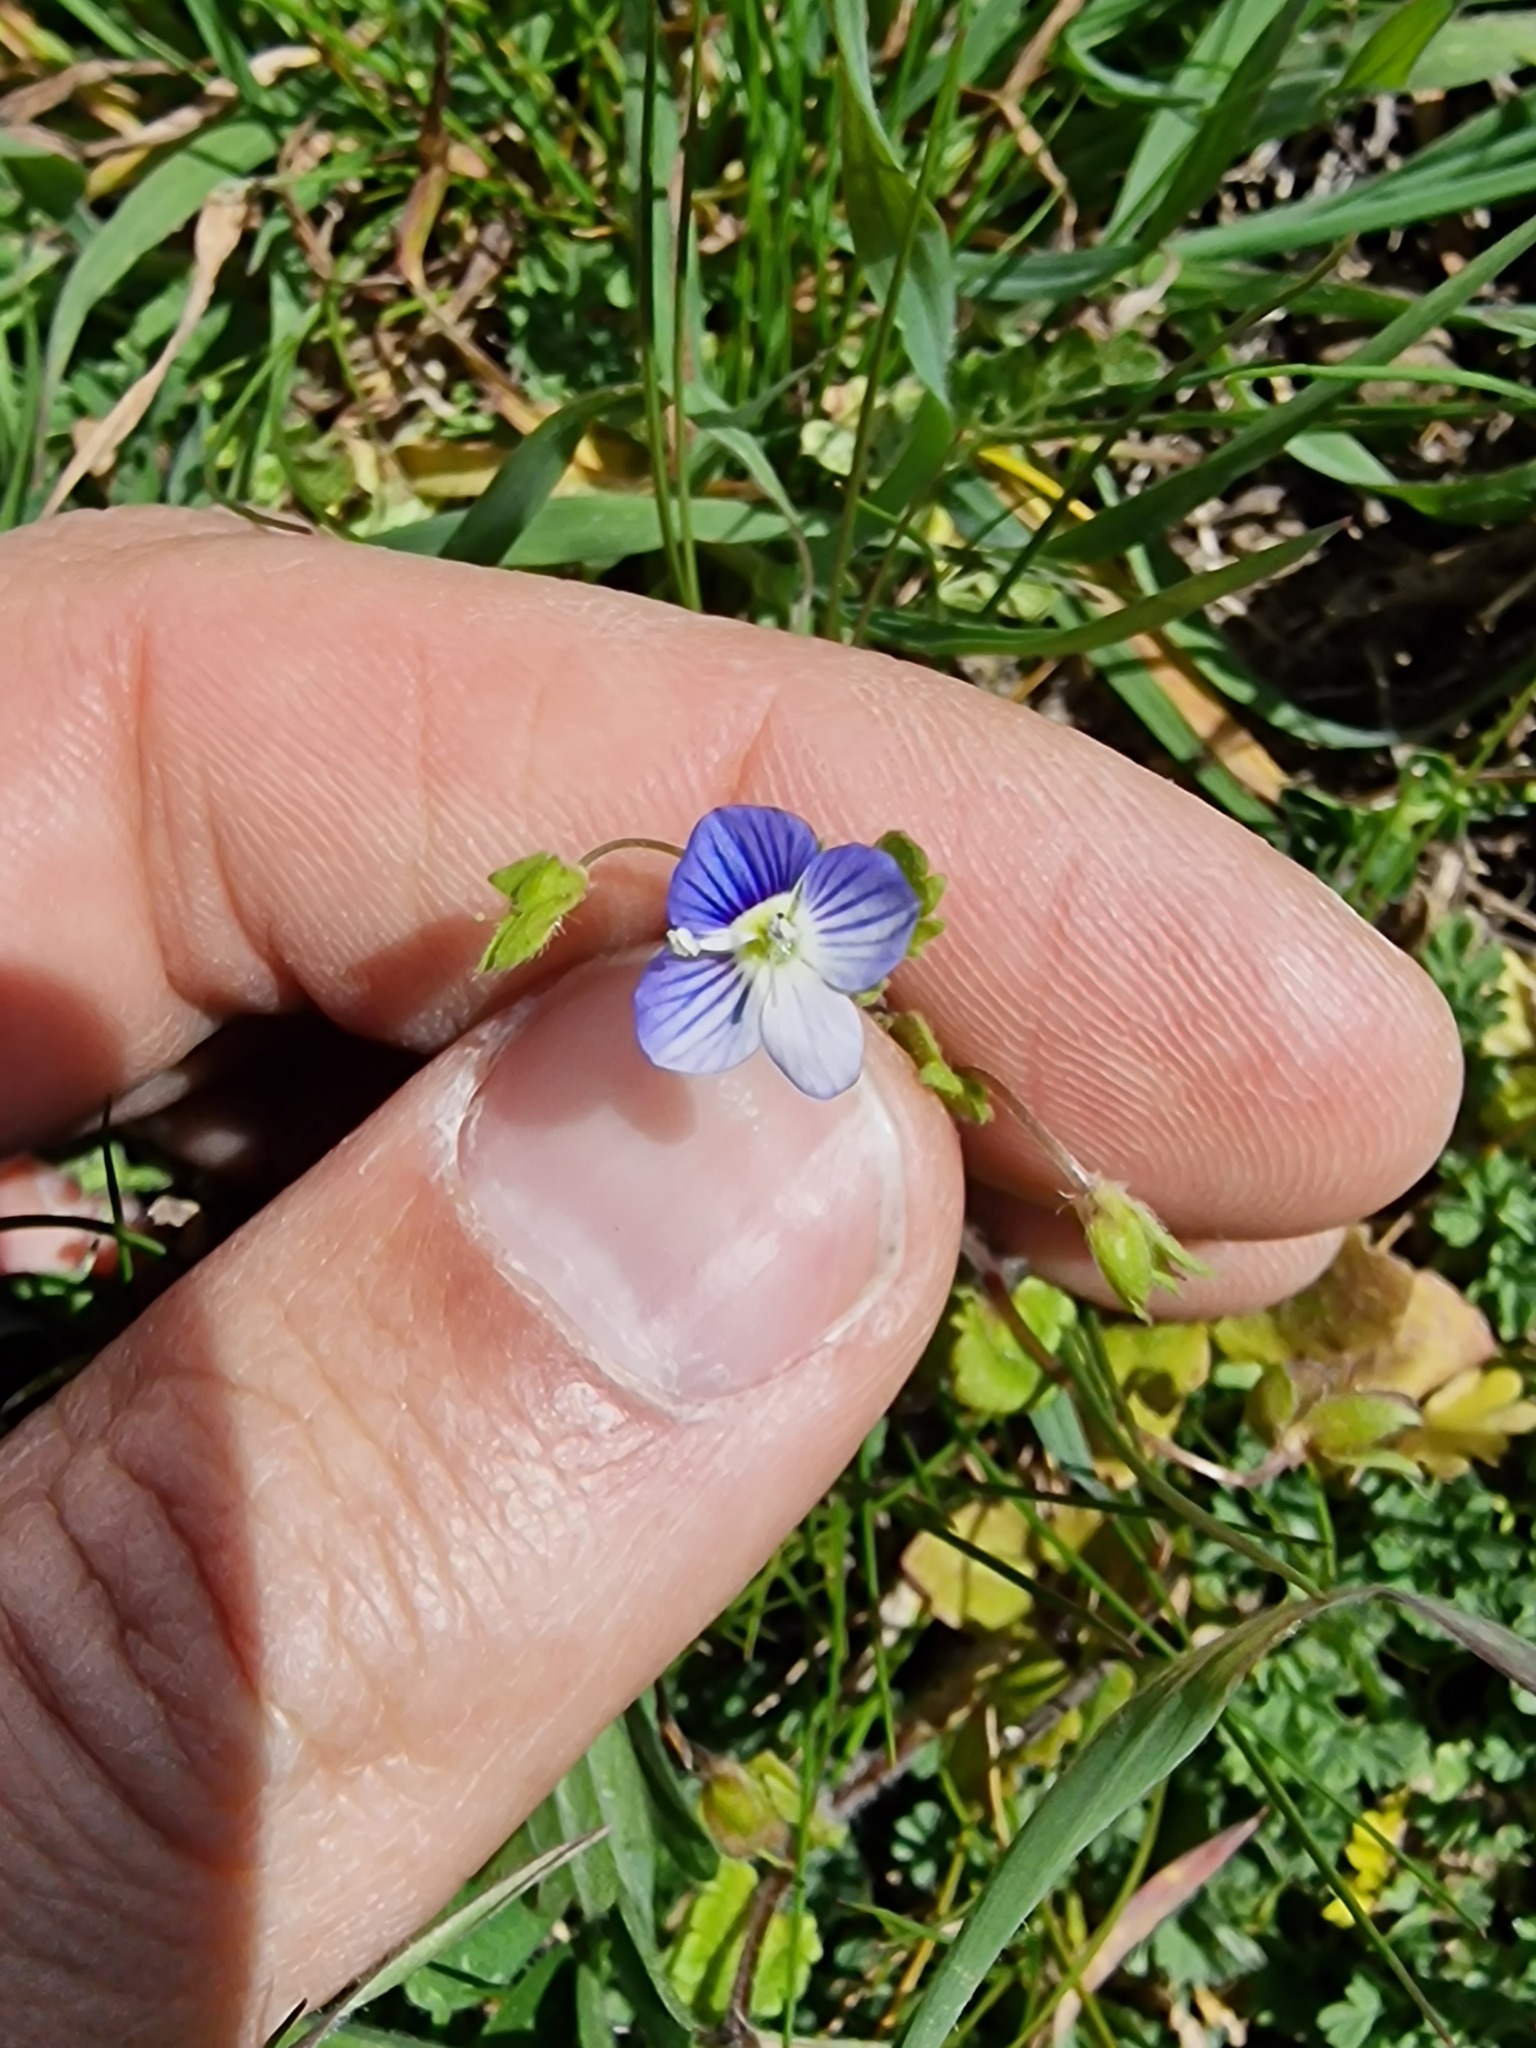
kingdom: Plantae
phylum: Tracheophyta
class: Magnoliopsida
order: Lamiales
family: Plantaginaceae
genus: Veronica
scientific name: Veronica persica
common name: Common field-speedwell
